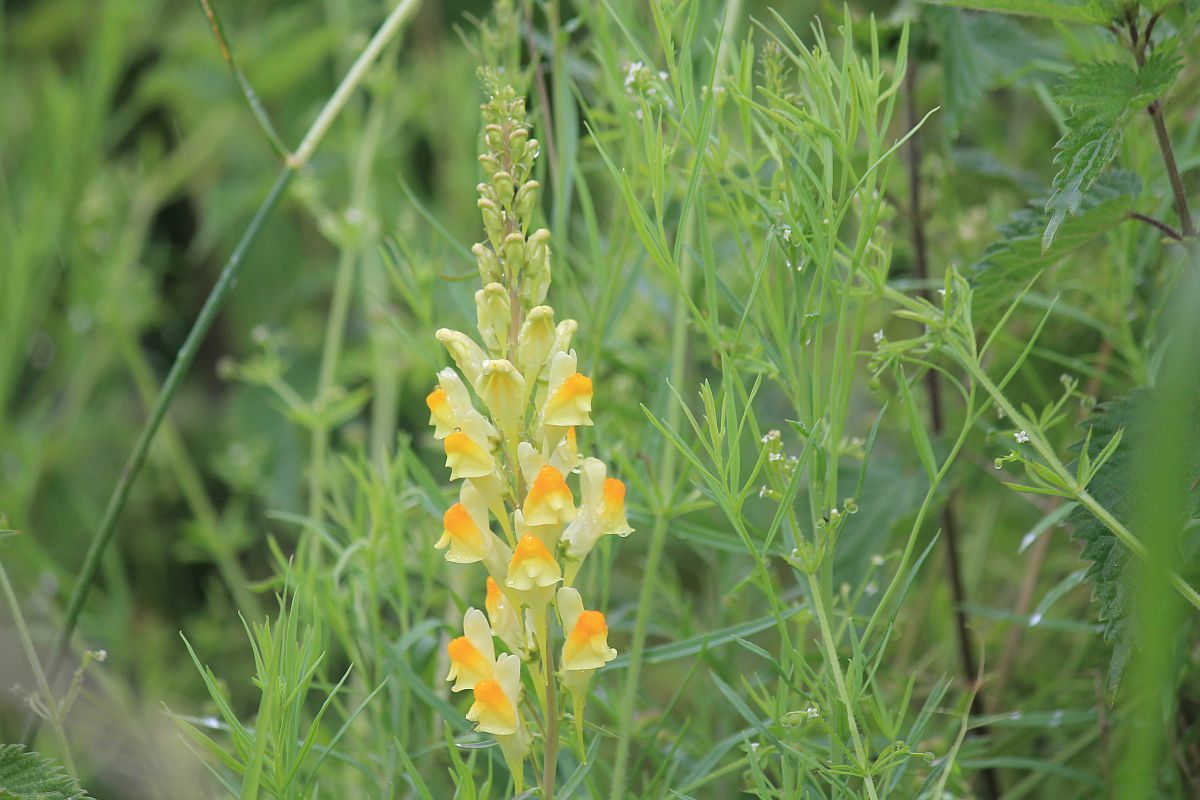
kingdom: Plantae
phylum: Tracheophyta
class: Magnoliopsida
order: Lamiales
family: Plantaginaceae
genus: Linaria
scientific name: Linaria vulgaris
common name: Butter and eggs
